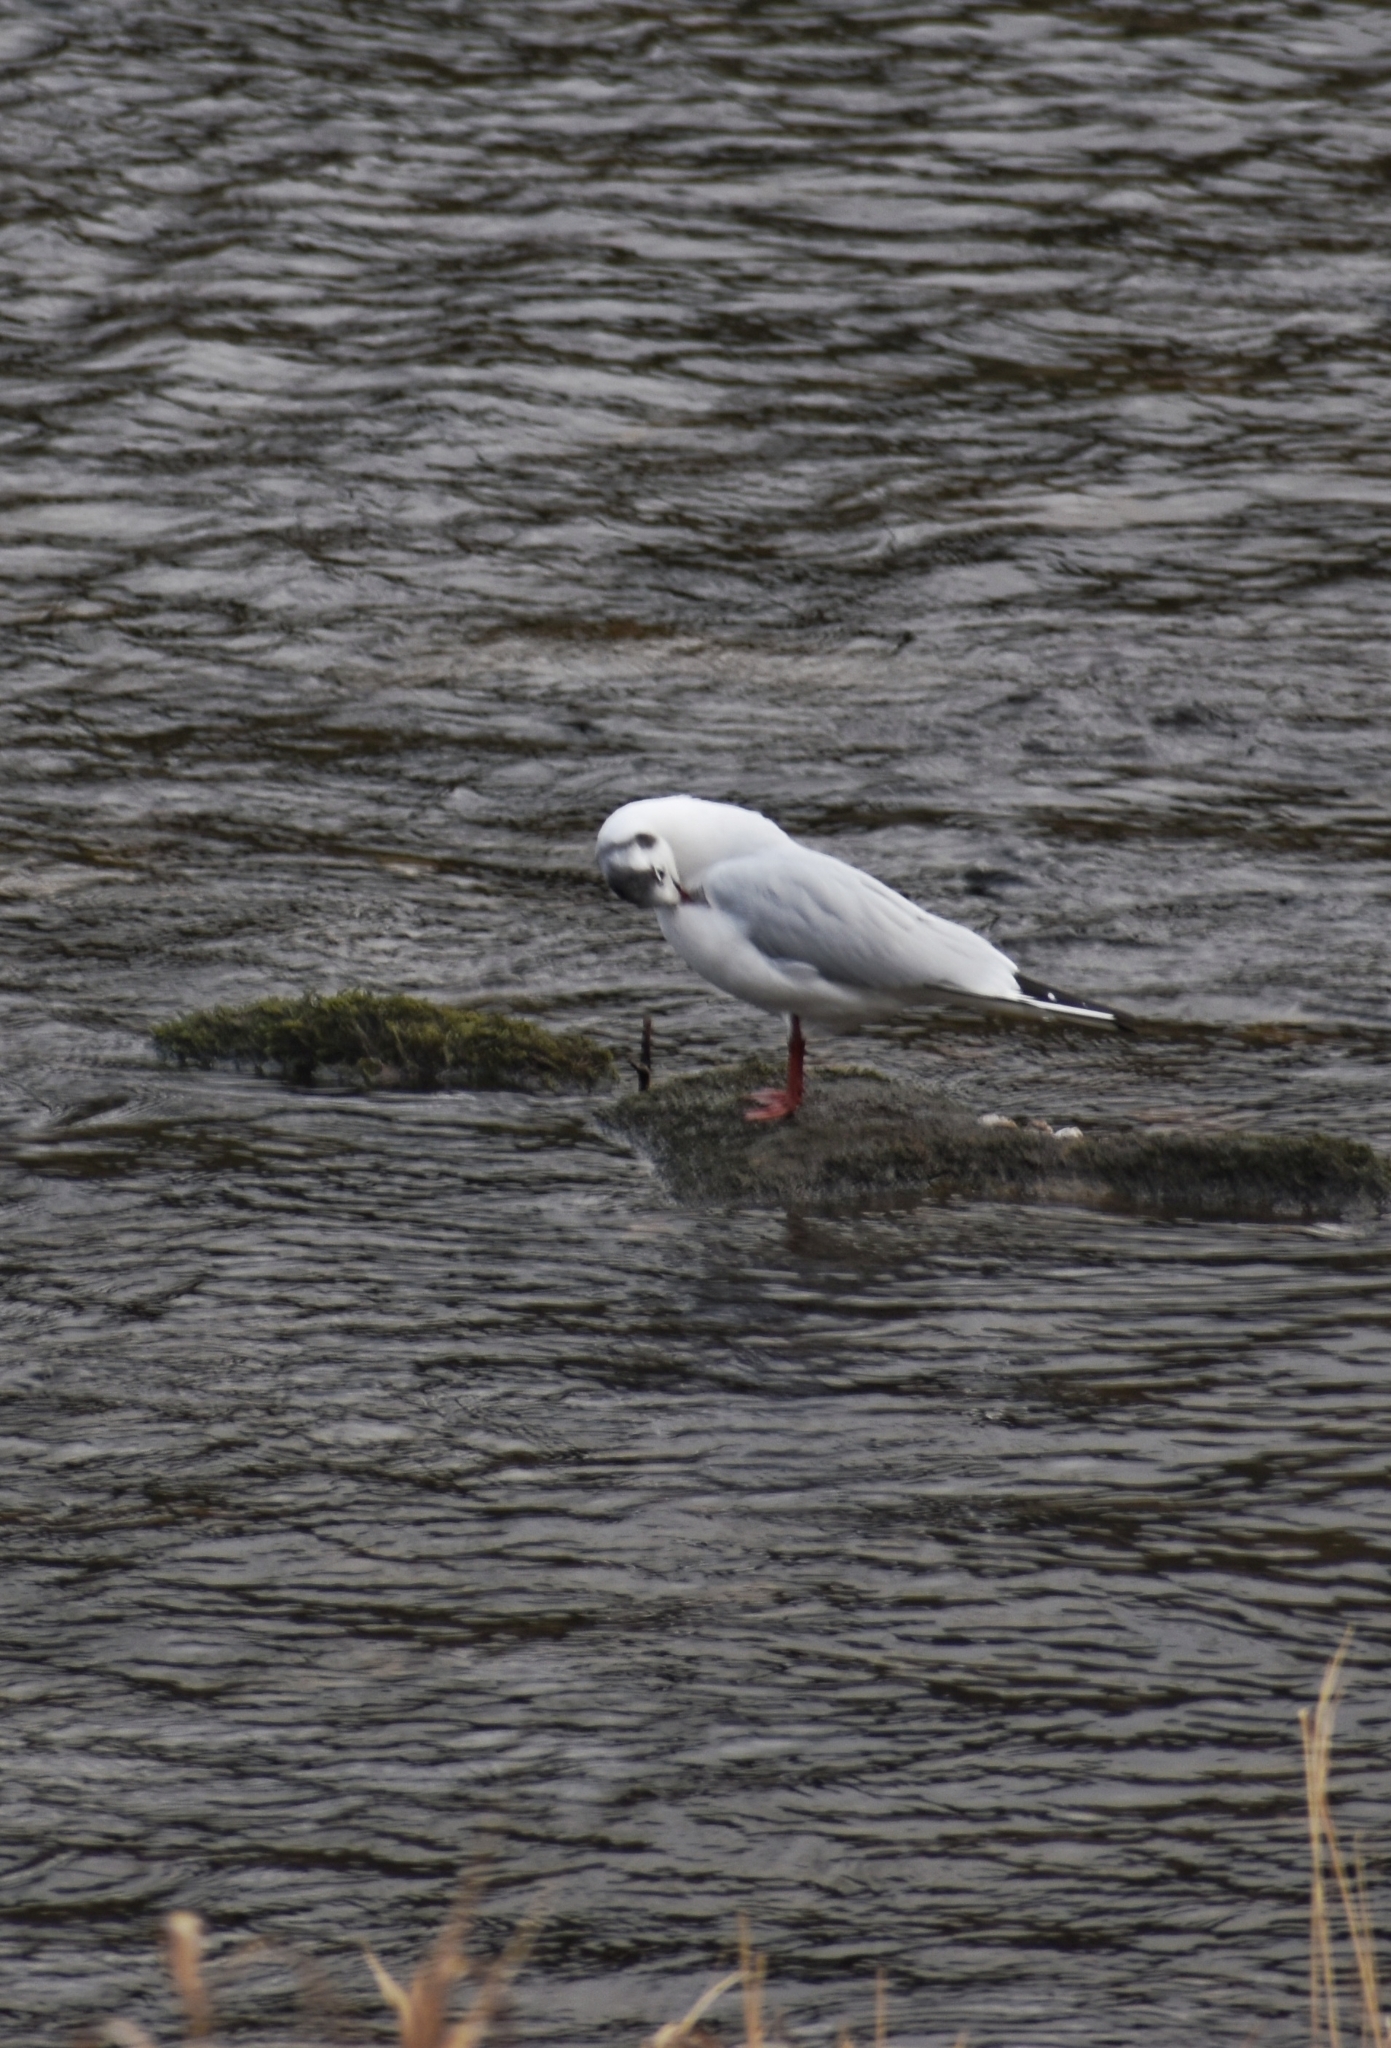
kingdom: Animalia
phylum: Chordata
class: Aves
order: Charadriiformes
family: Laridae
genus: Chroicocephalus
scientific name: Chroicocephalus ridibundus
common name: Black-headed gull
